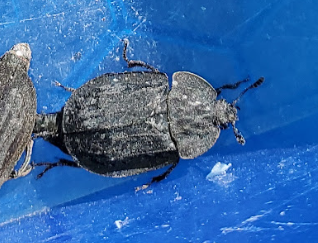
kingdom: Animalia
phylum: Arthropoda
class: Insecta
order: Coleoptera
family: Staphylinidae
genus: Oiceoptoma
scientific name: Oiceoptoma inaequale
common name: Ridged carrion beetle
